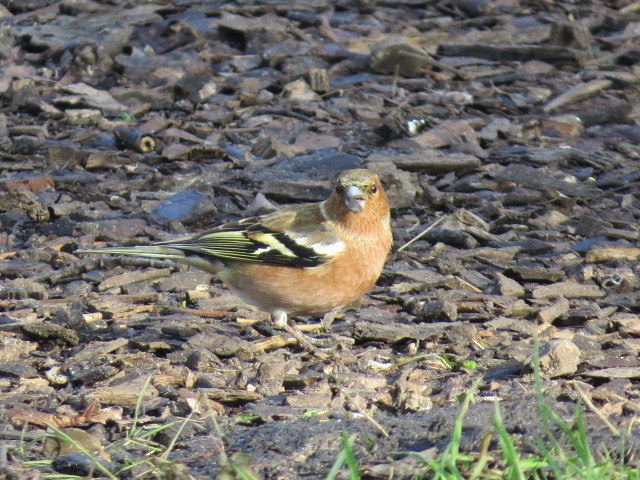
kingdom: Animalia
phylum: Chordata
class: Aves
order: Passeriformes
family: Fringillidae
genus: Fringilla
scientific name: Fringilla coelebs
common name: Common chaffinch
